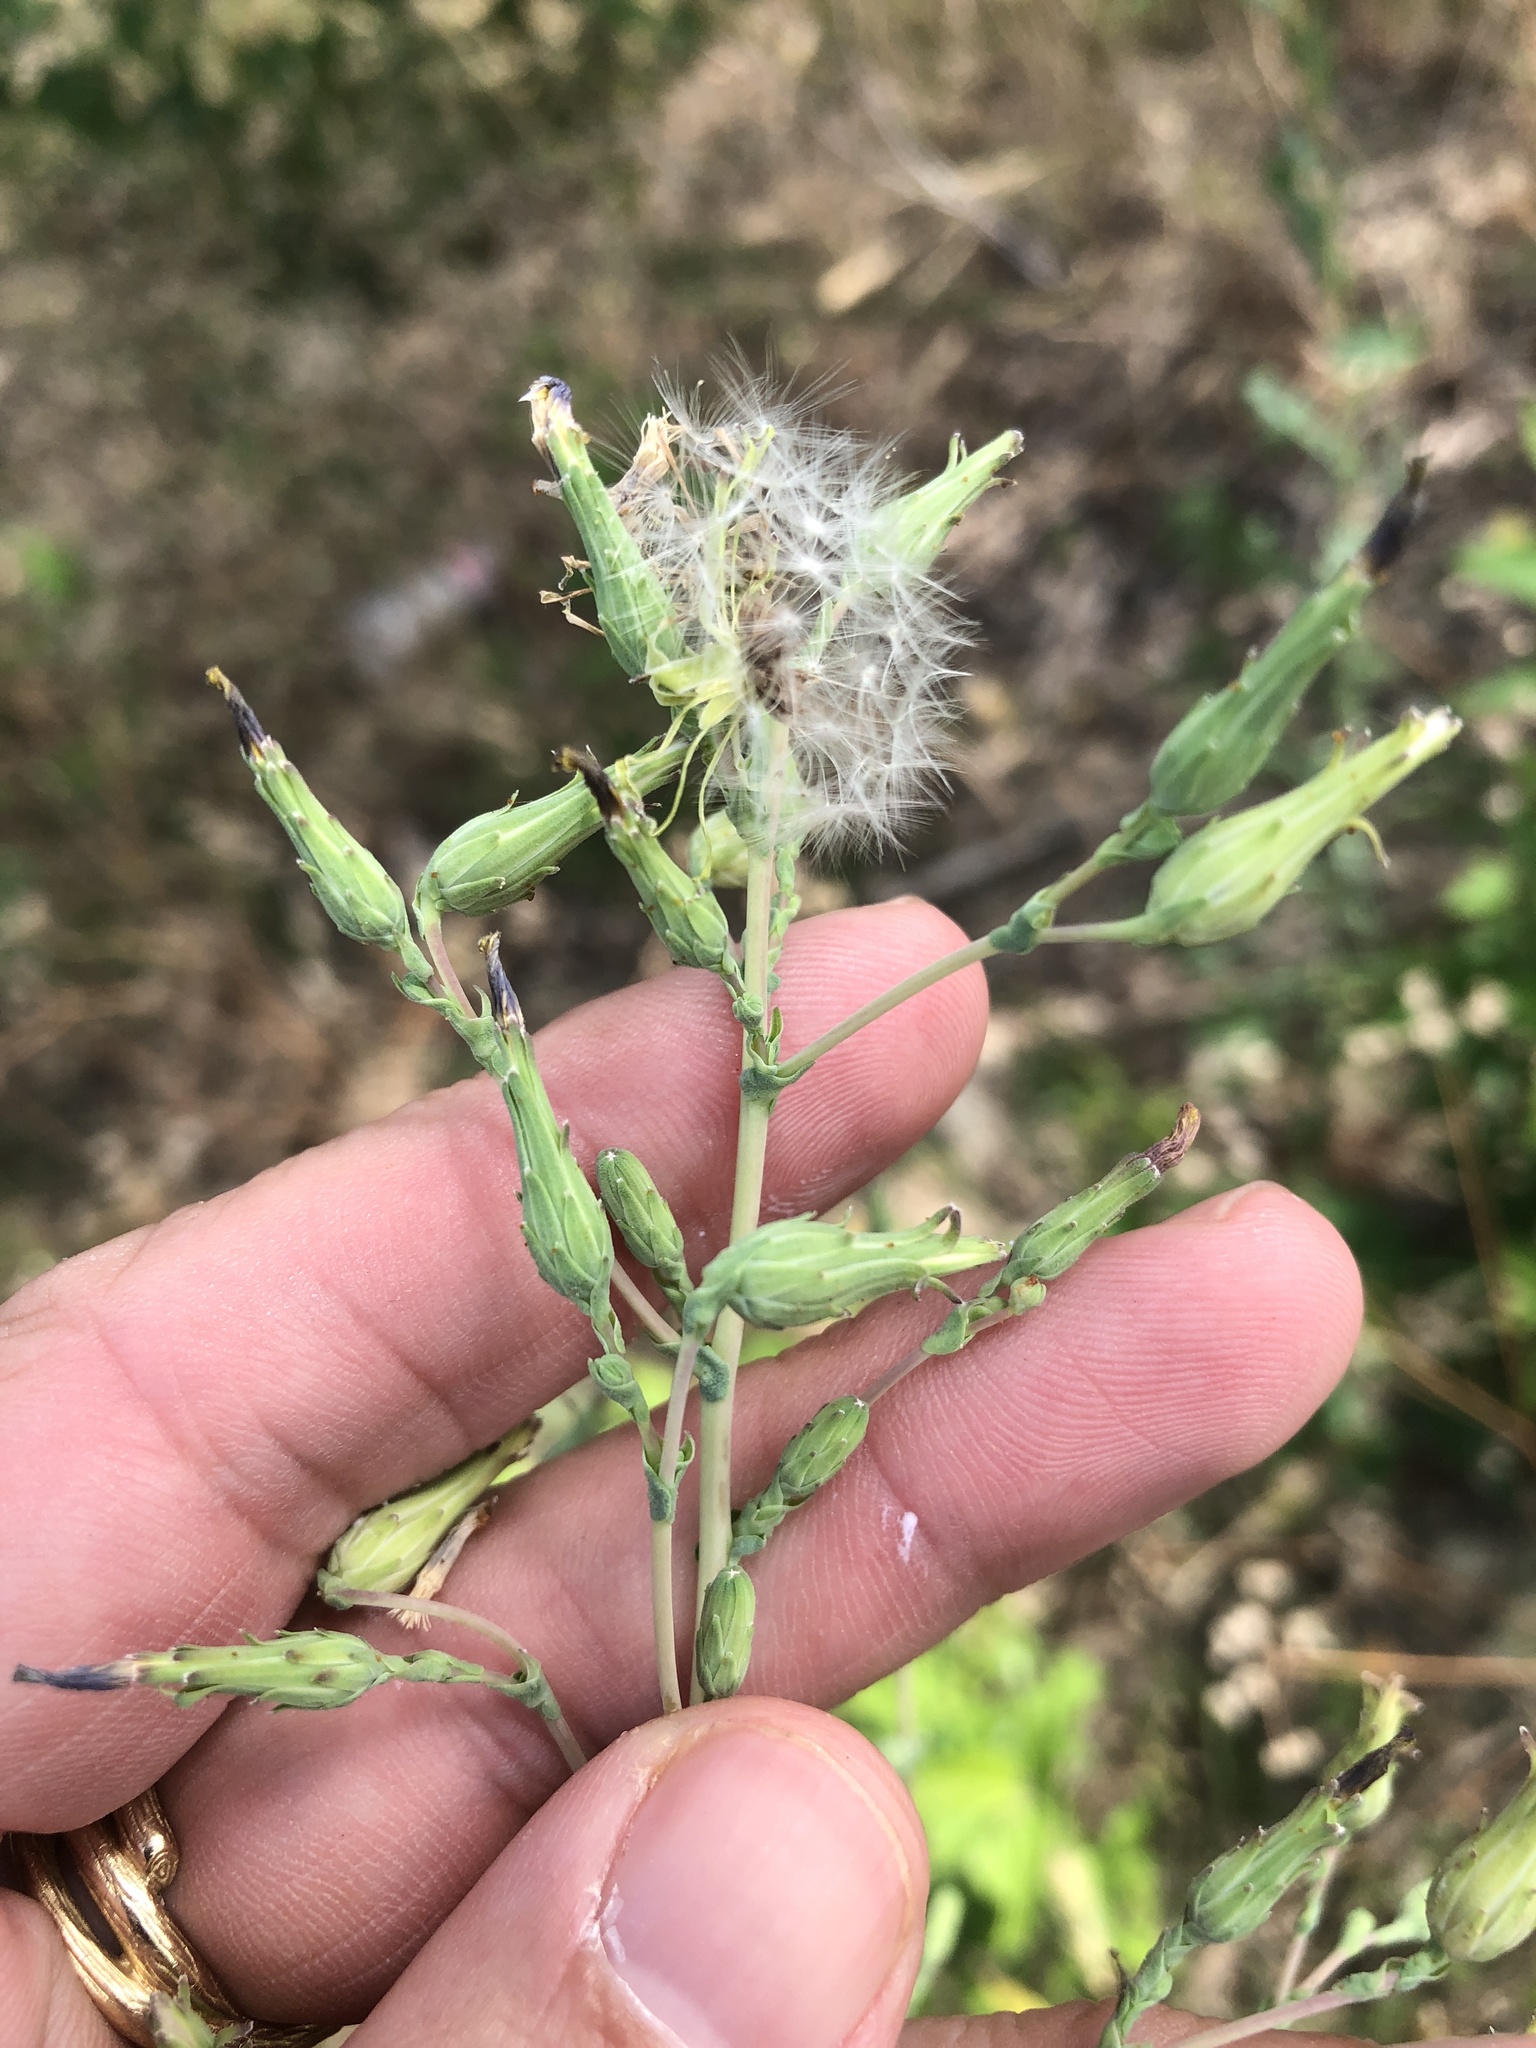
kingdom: Plantae
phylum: Tracheophyta
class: Magnoliopsida
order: Asterales
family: Asteraceae
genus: Lactuca
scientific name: Lactuca serriola
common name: Prickly lettuce
